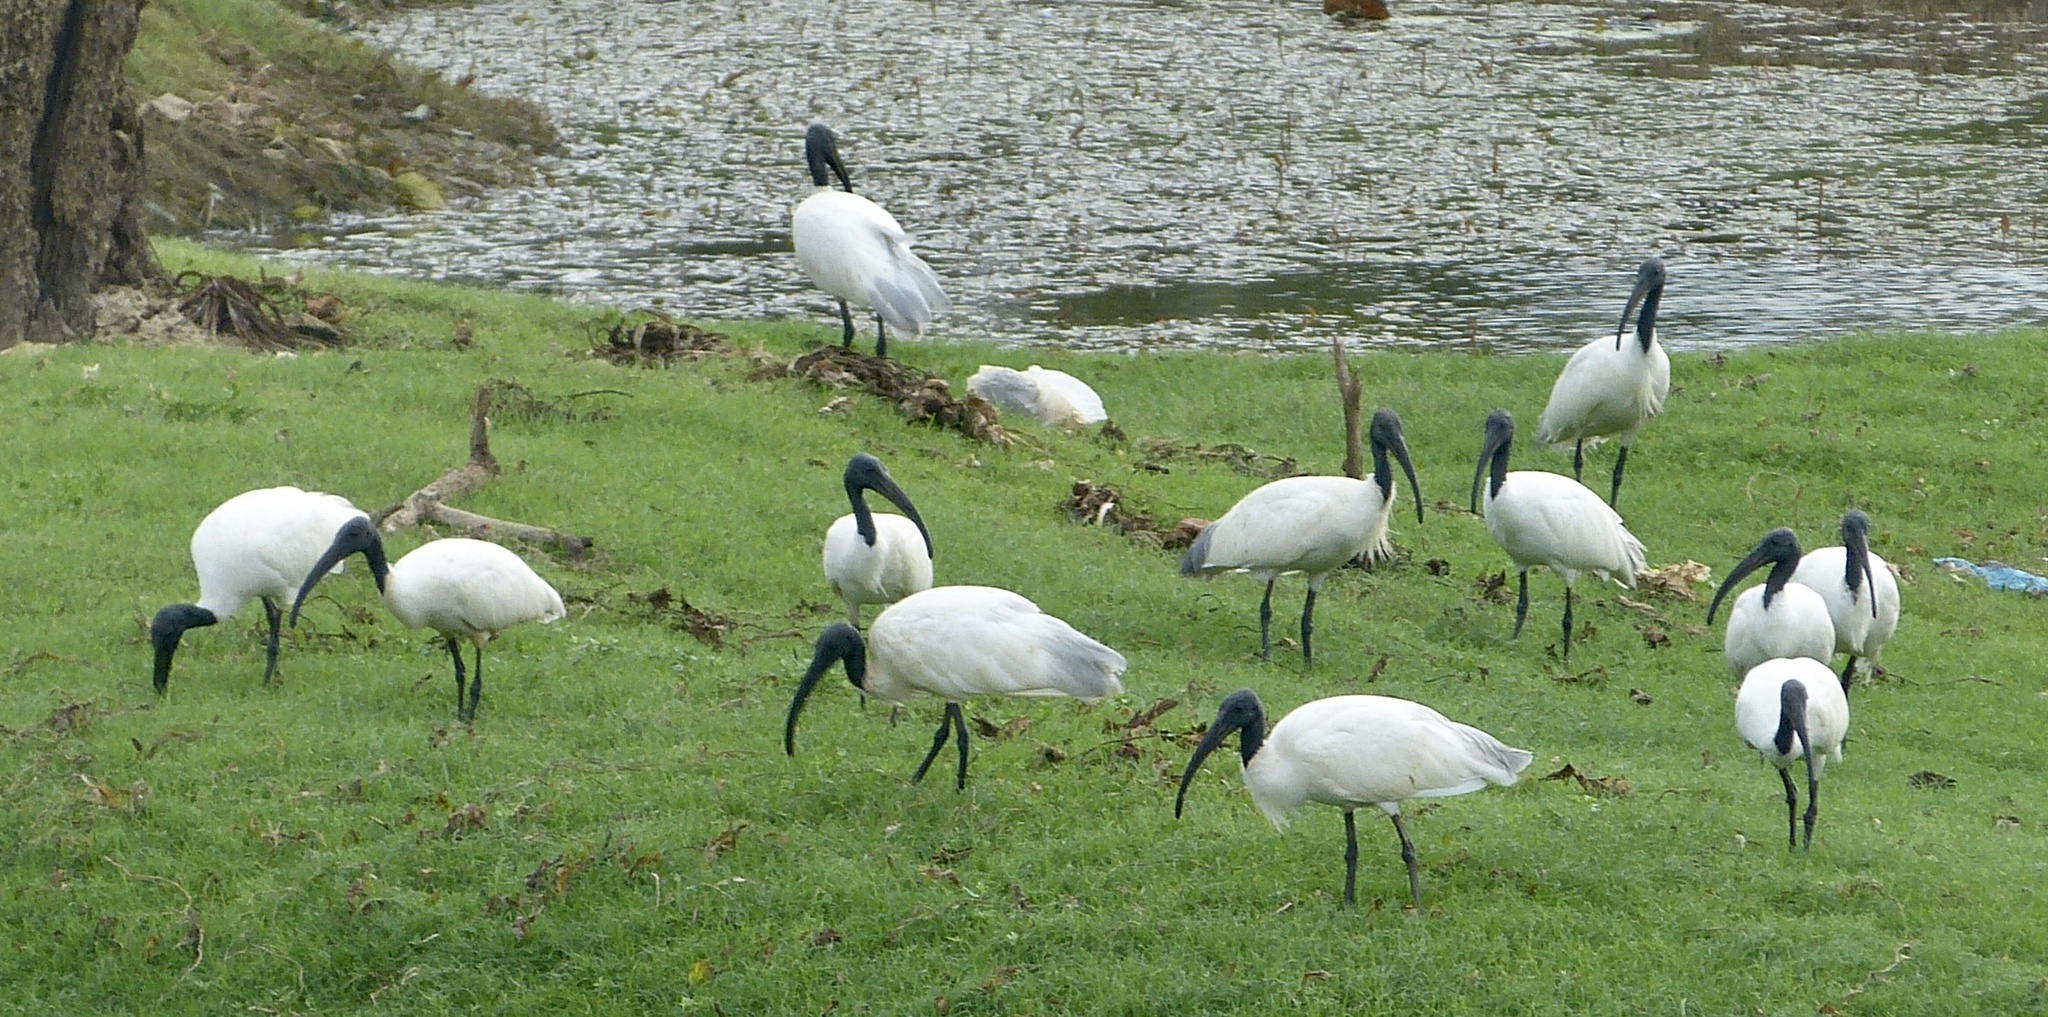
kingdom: Animalia
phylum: Chordata
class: Aves
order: Pelecaniformes
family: Threskiornithidae
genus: Threskiornis
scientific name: Threskiornis melanocephalus
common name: Black-headed ibis
